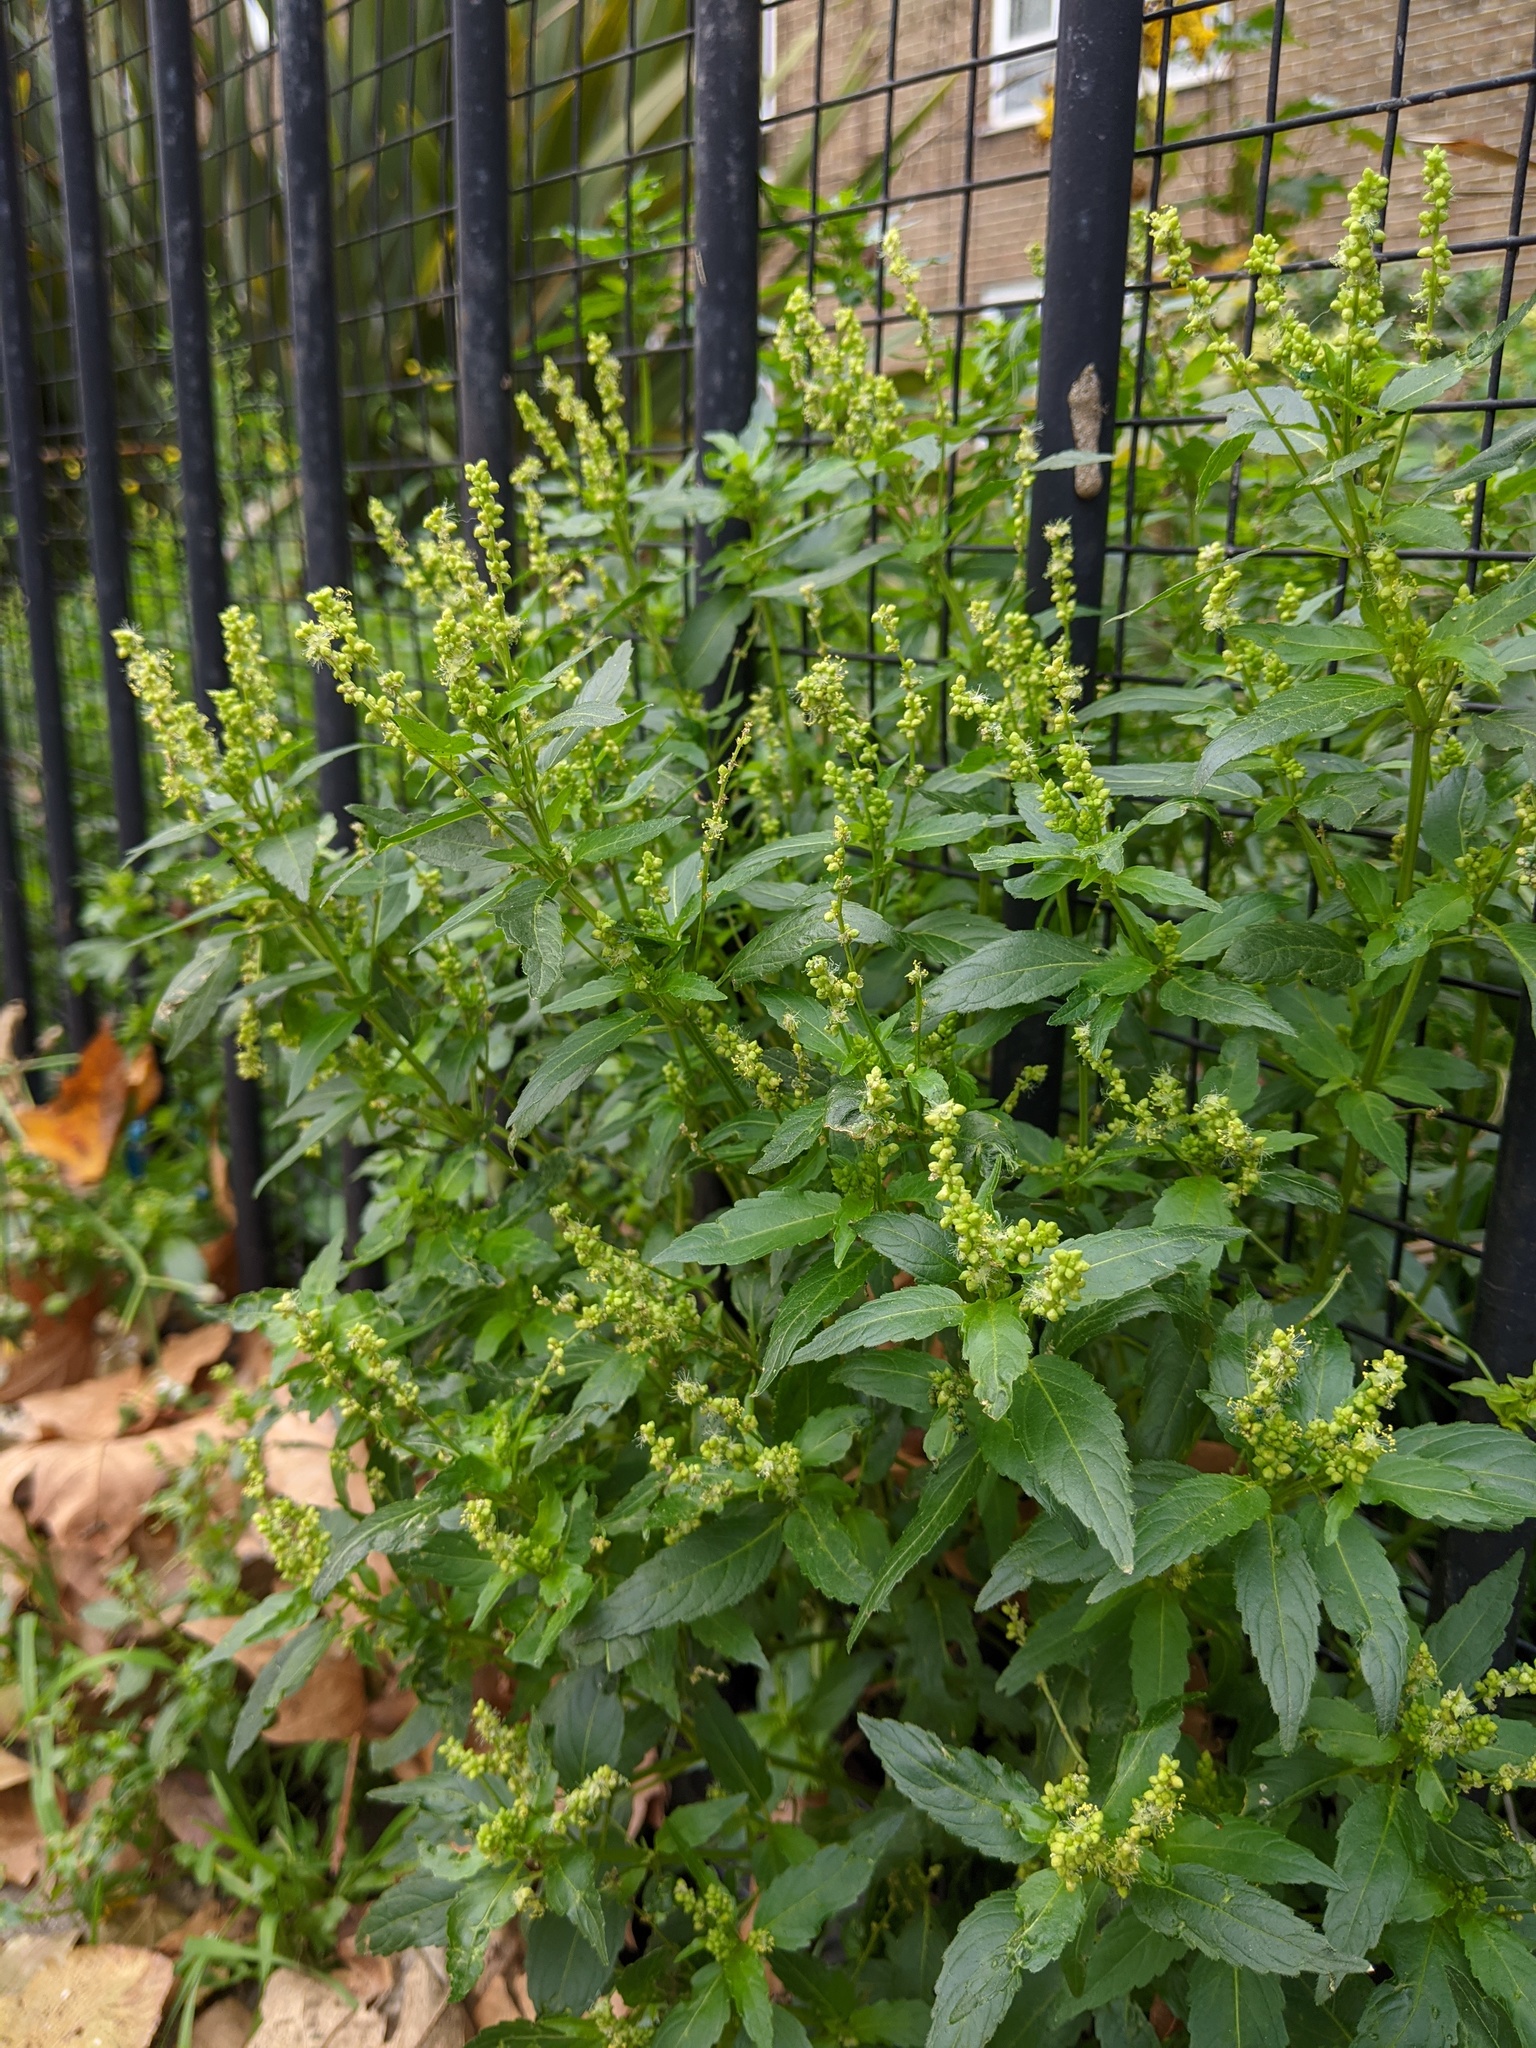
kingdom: Plantae
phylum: Tracheophyta
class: Magnoliopsida
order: Malpighiales
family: Euphorbiaceae
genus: Mercurialis
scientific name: Mercurialis annua
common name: Annual mercury
